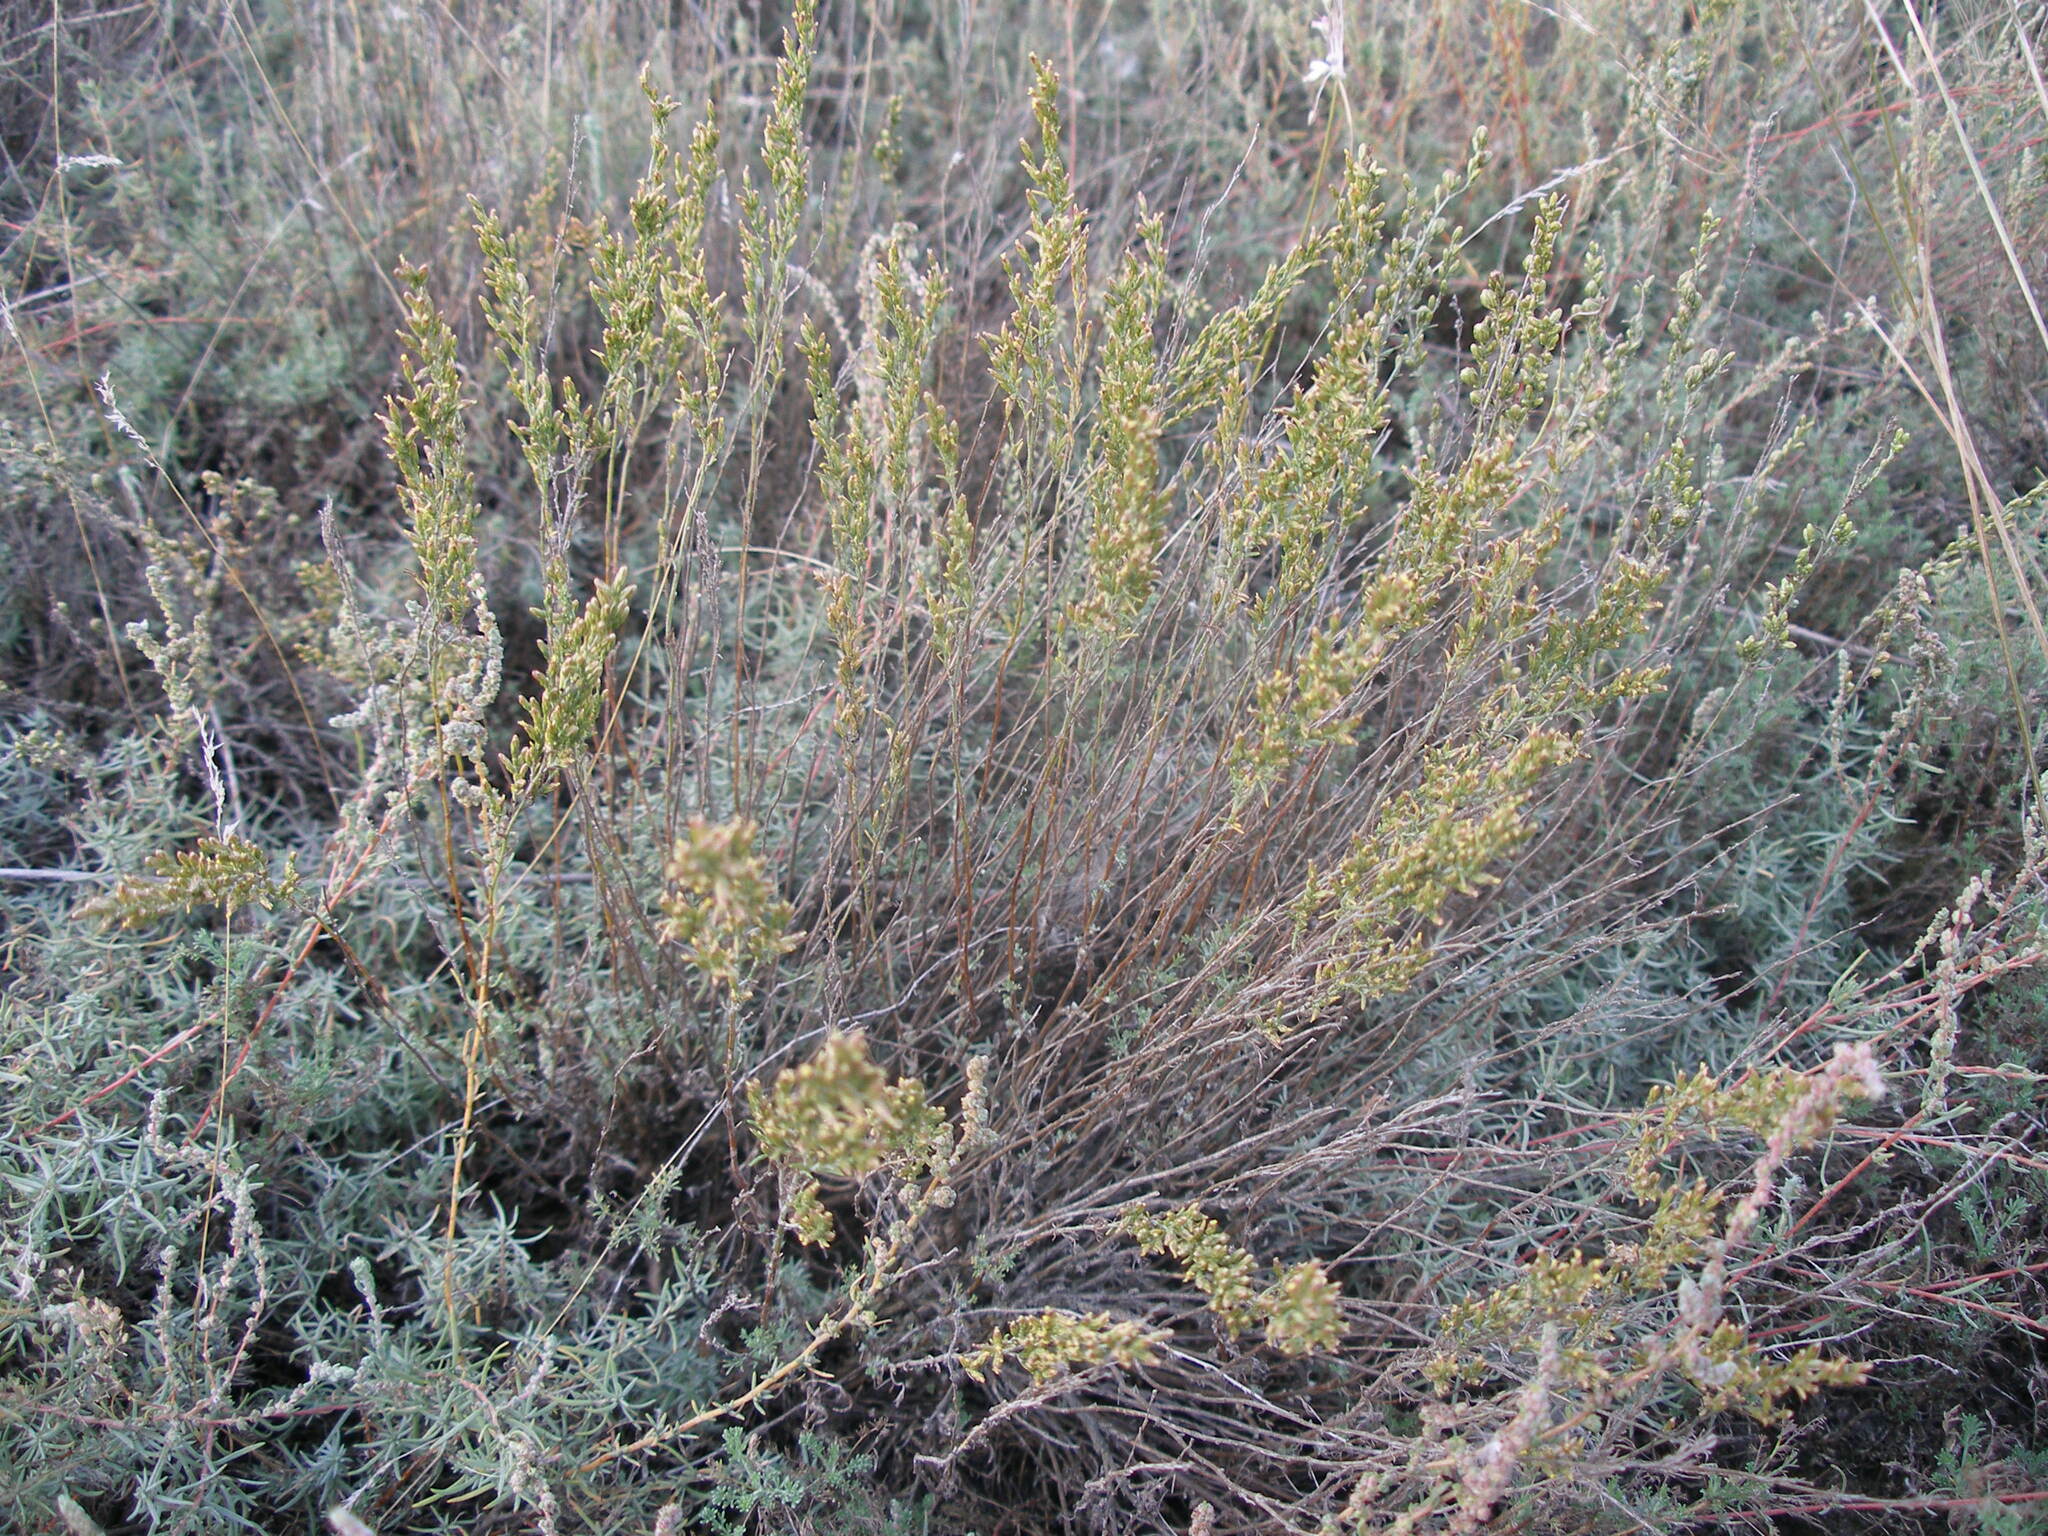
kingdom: Plantae
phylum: Tracheophyta
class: Magnoliopsida
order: Asterales
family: Asteraceae
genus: Artemisia
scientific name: Artemisia pauciflora
